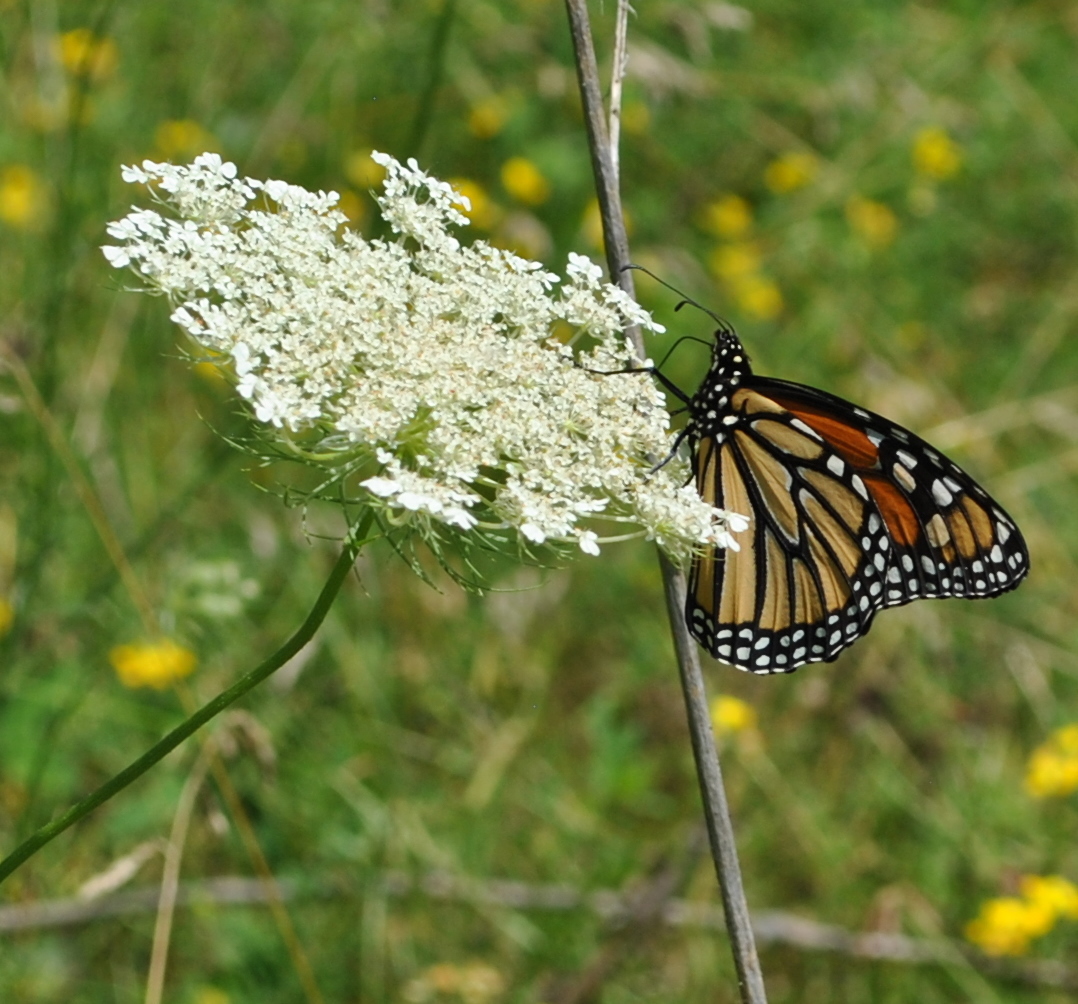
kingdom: Animalia
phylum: Arthropoda
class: Insecta
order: Lepidoptera
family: Nymphalidae
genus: Danaus
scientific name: Danaus plexippus
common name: Monarch
